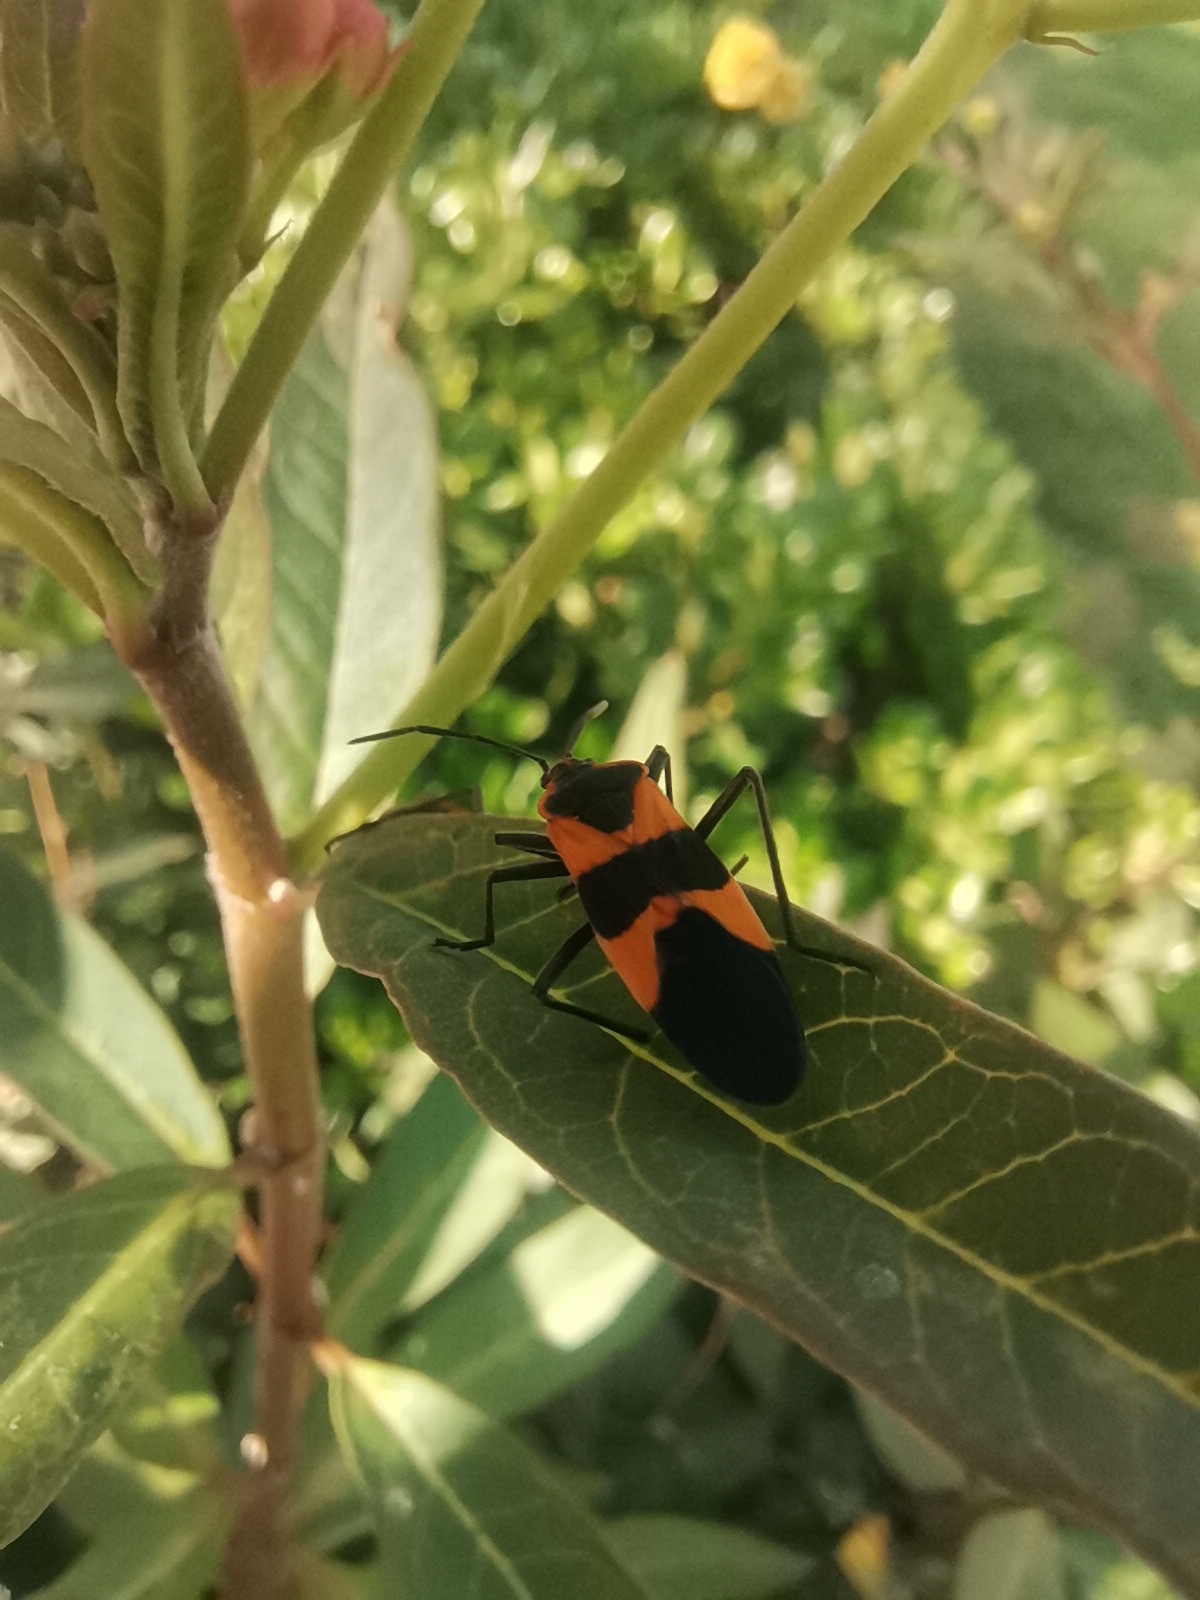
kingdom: Animalia
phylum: Arthropoda
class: Insecta
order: Hemiptera
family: Lygaeidae
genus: Oncopeltus
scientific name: Oncopeltus fasciatus
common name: Large milkweed bug
